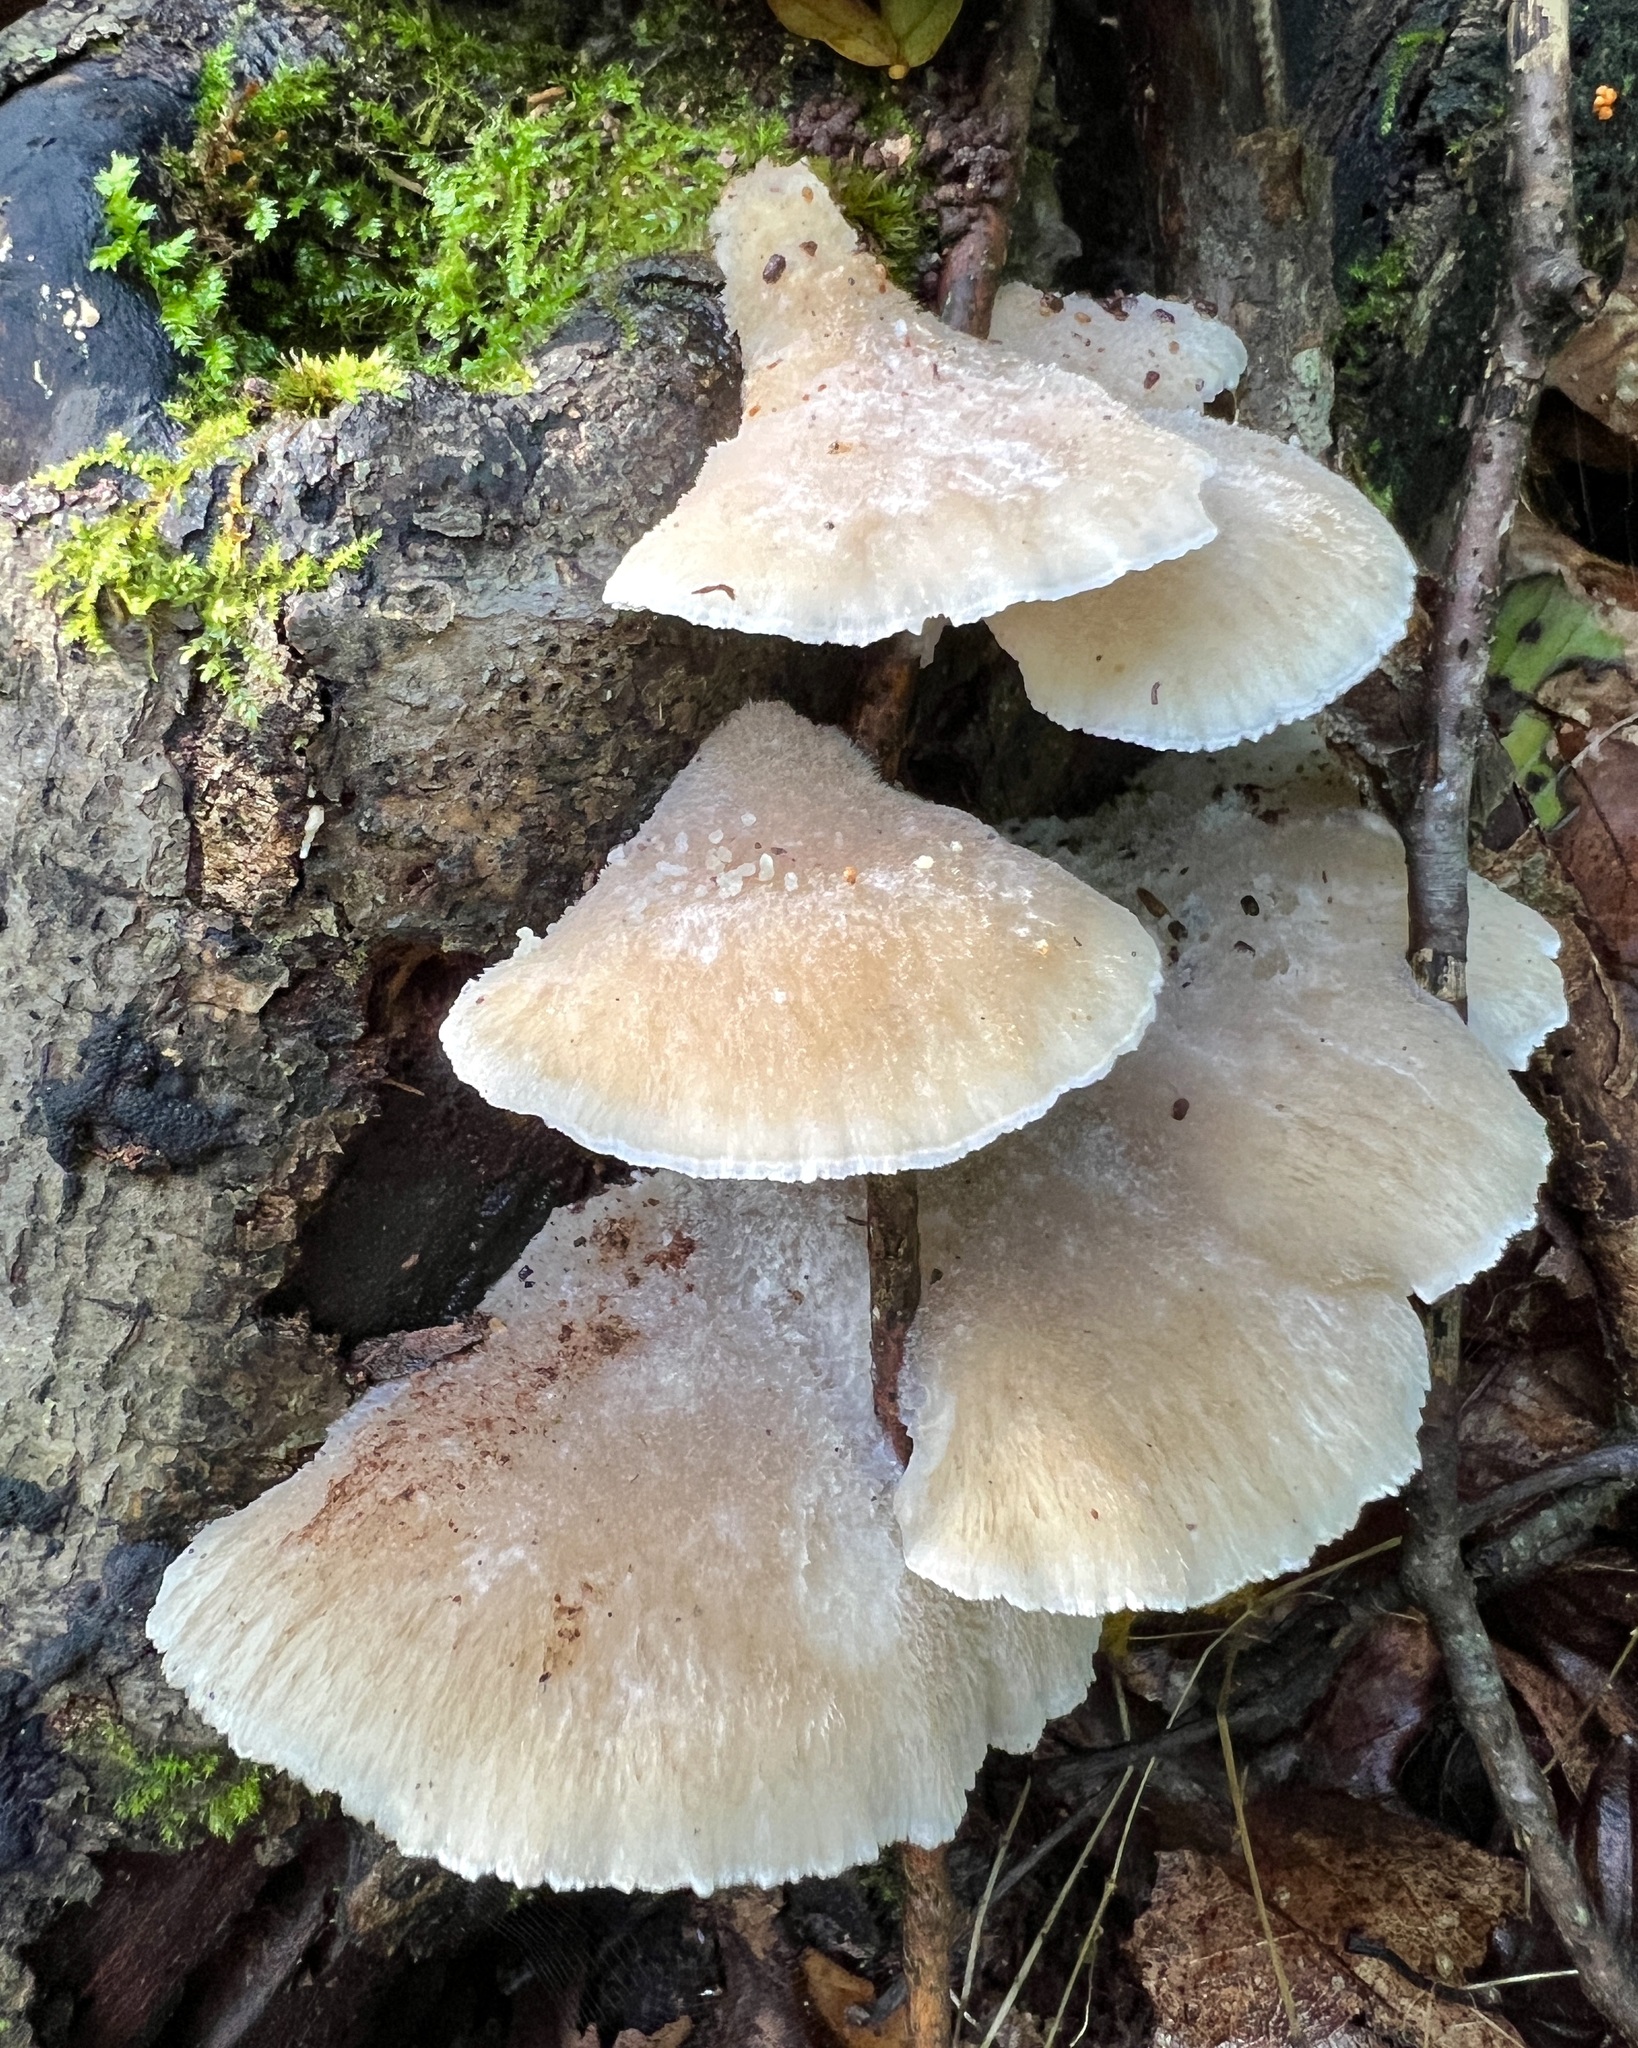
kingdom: Fungi
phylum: Basidiomycota
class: Agaricomycetes
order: Polyporales
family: Incrustoporiaceae
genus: Tyromyces
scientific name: Tyromyces chioneus
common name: White cheese polypore
